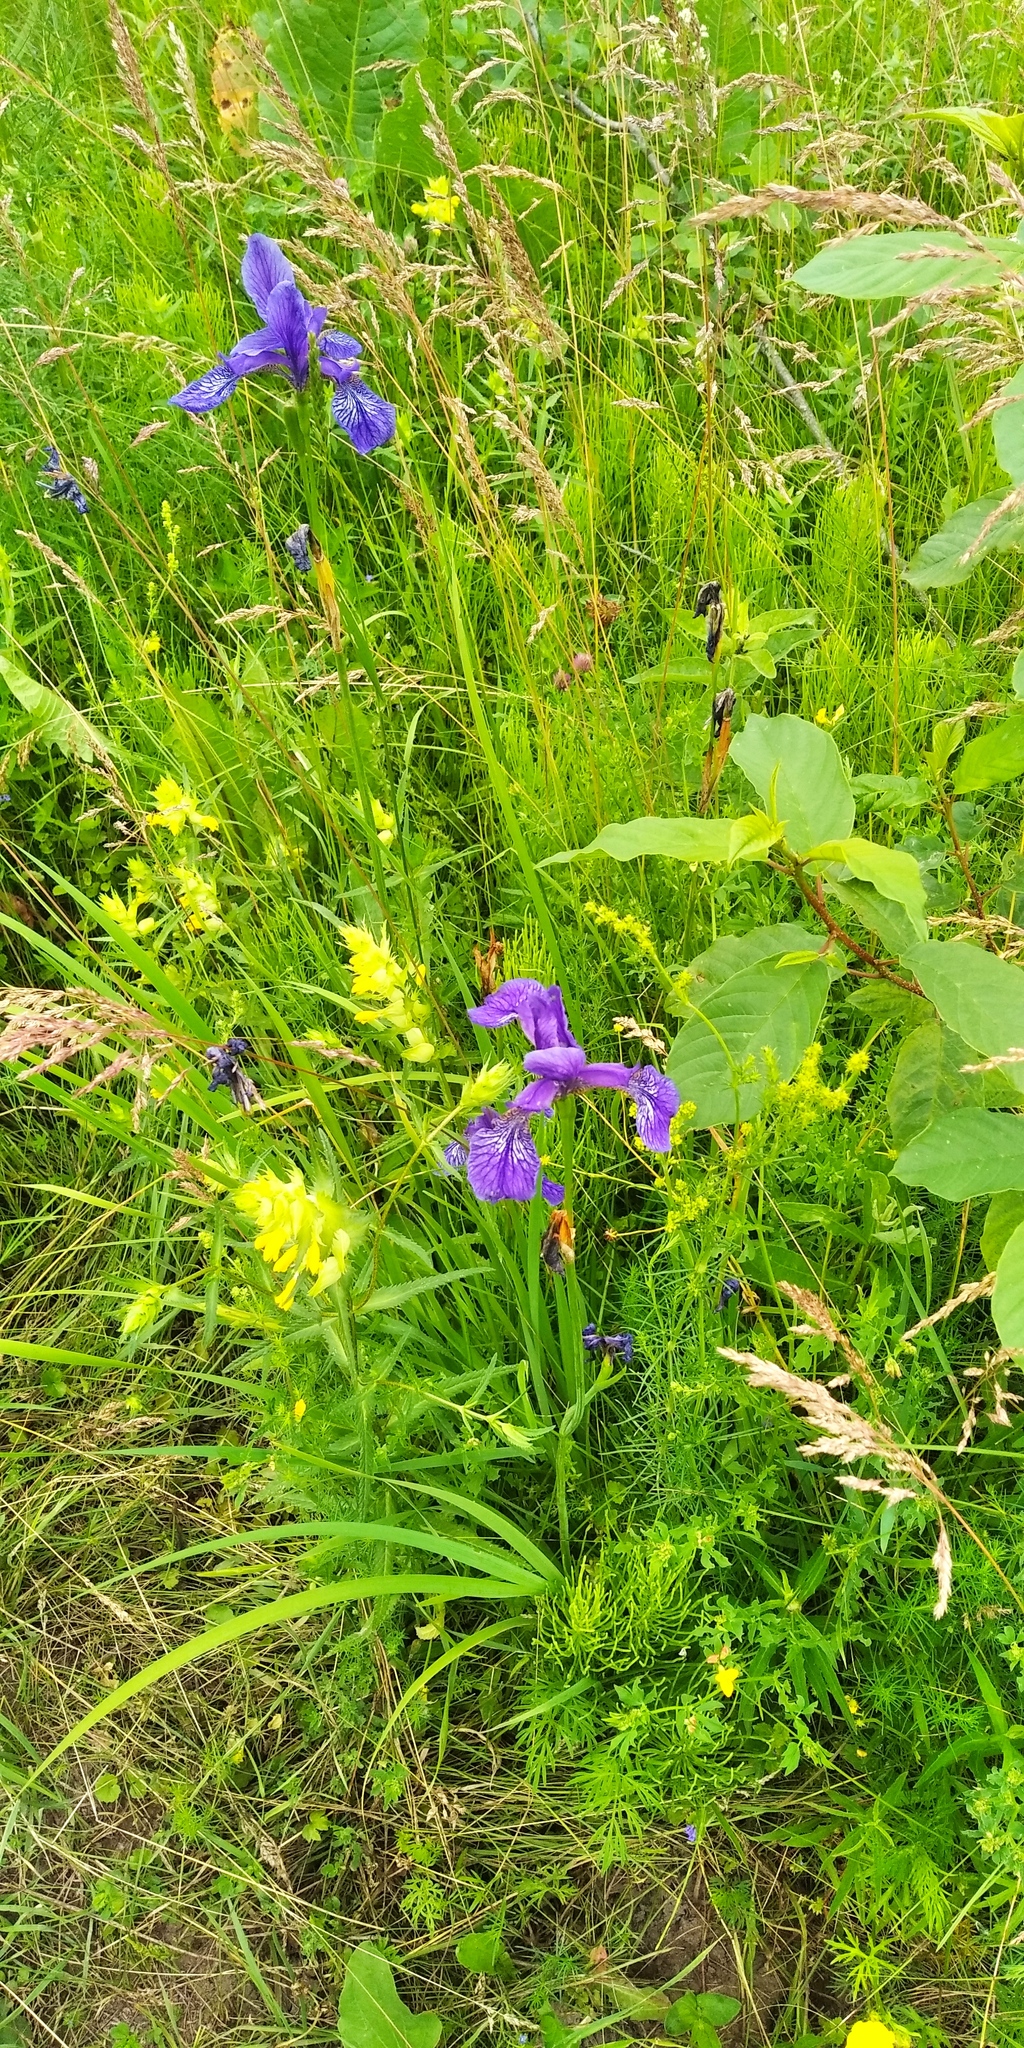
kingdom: Plantae
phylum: Tracheophyta
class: Liliopsida
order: Asparagales
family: Iridaceae
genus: Iris
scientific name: Iris sibirica
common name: Siberian iris
